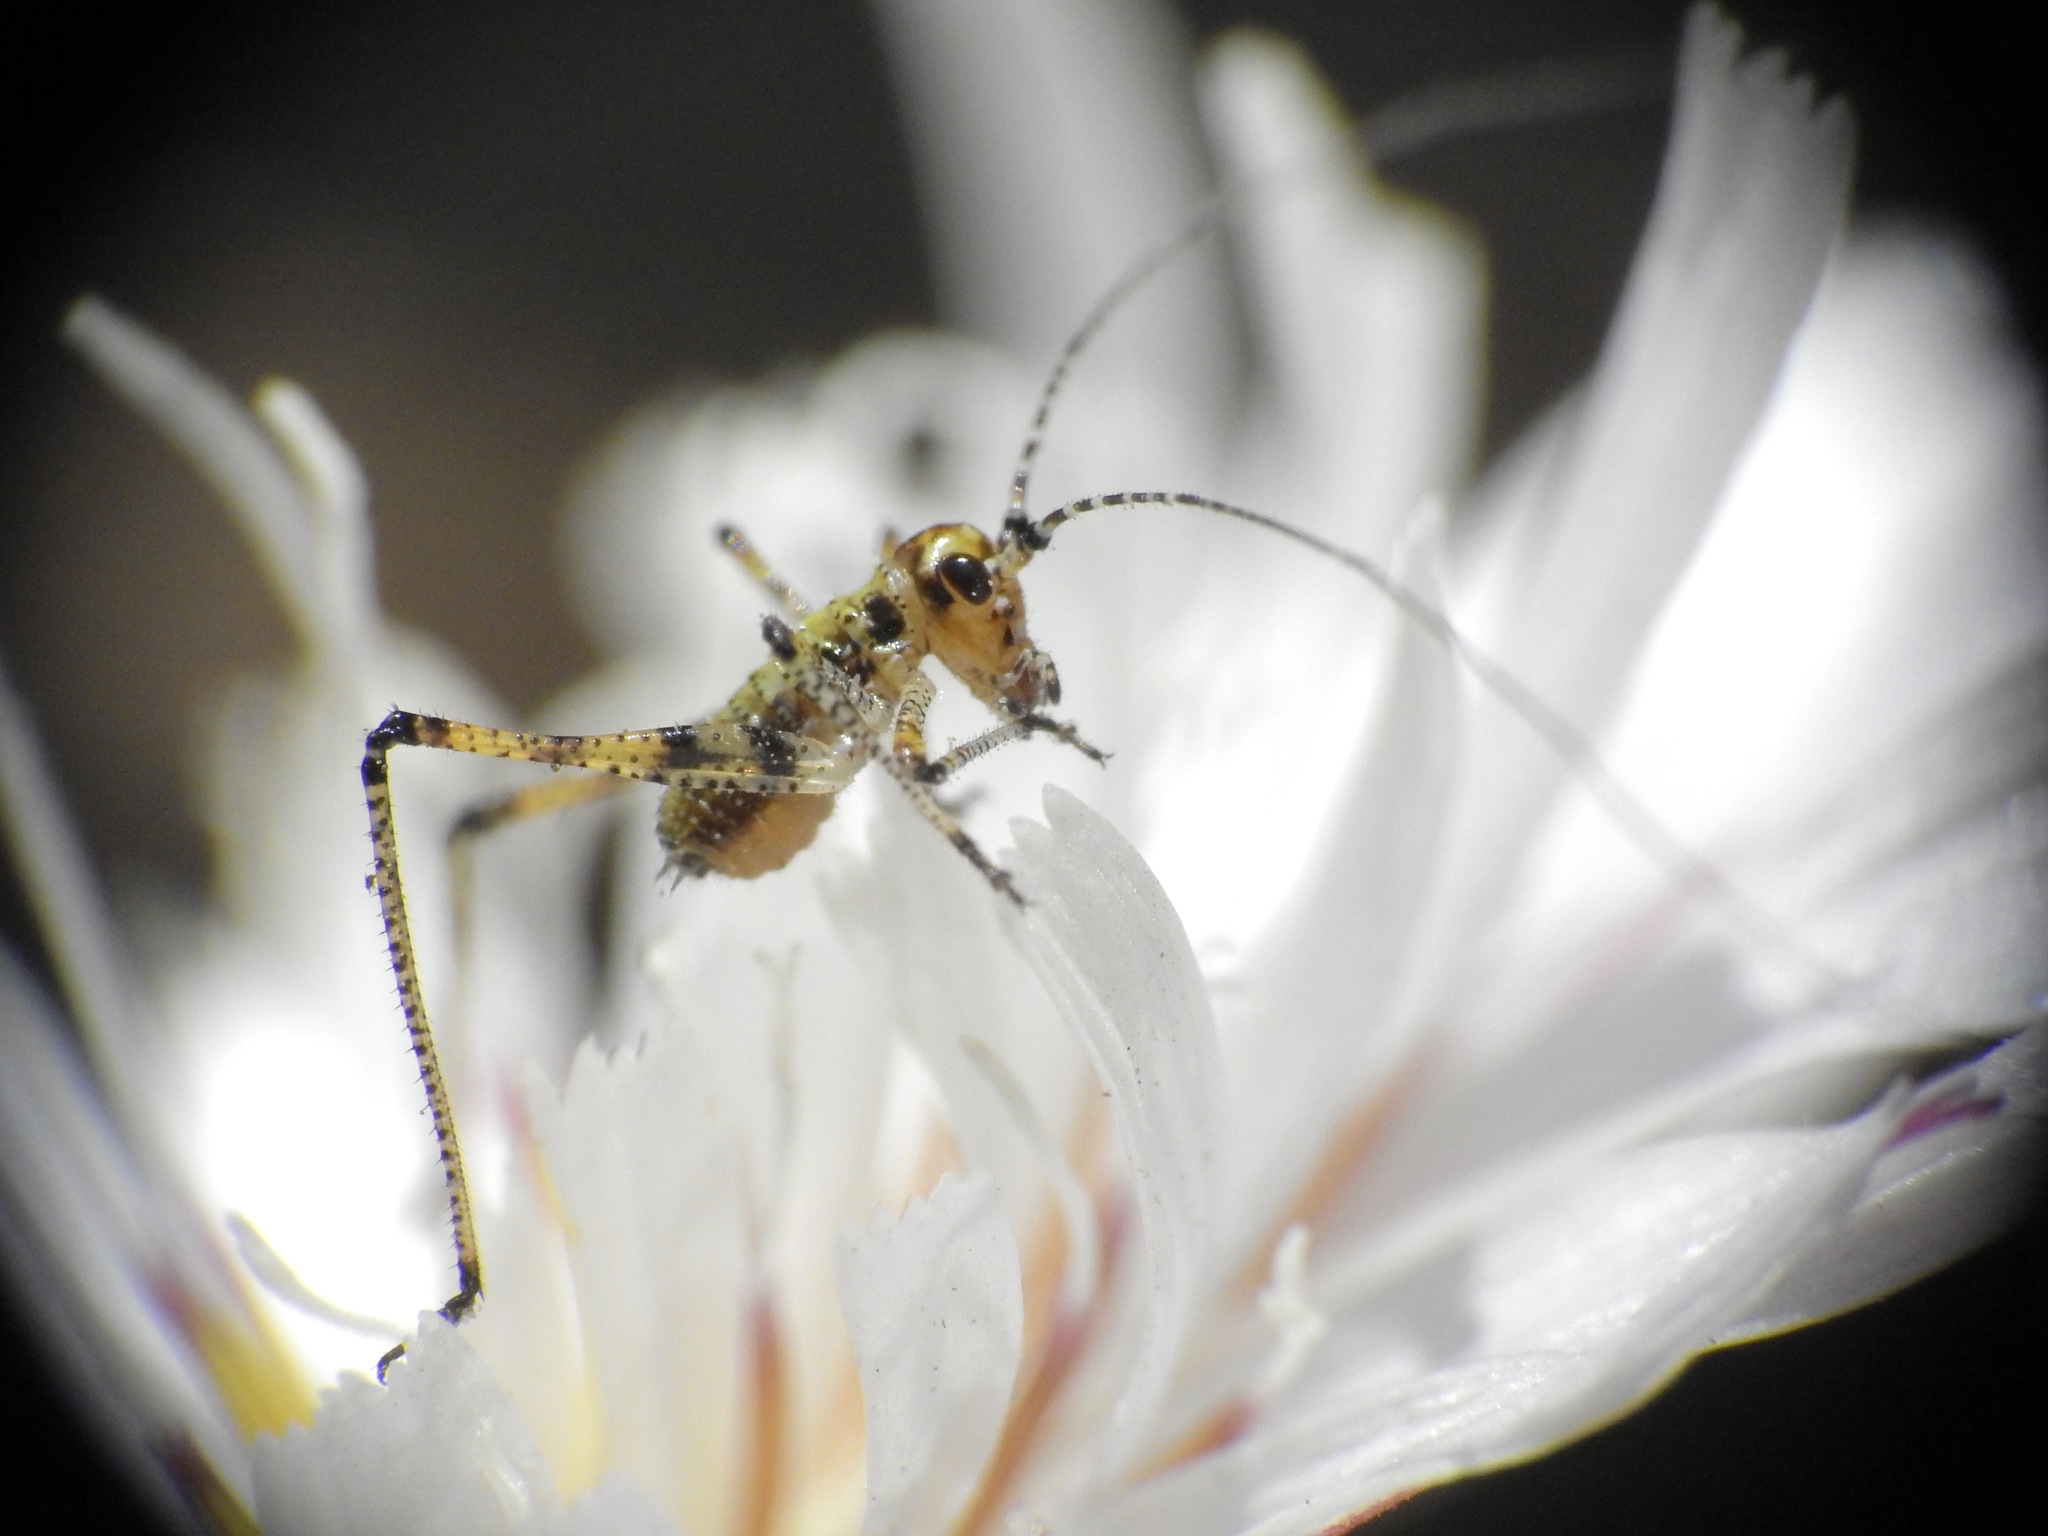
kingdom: Animalia
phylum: Arthropoda
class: Insecta
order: Orthoptera
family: Tettigoniidae
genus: Phaneroptera
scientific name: Phaneroptera nana
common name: Southern sickle bush-cricket
